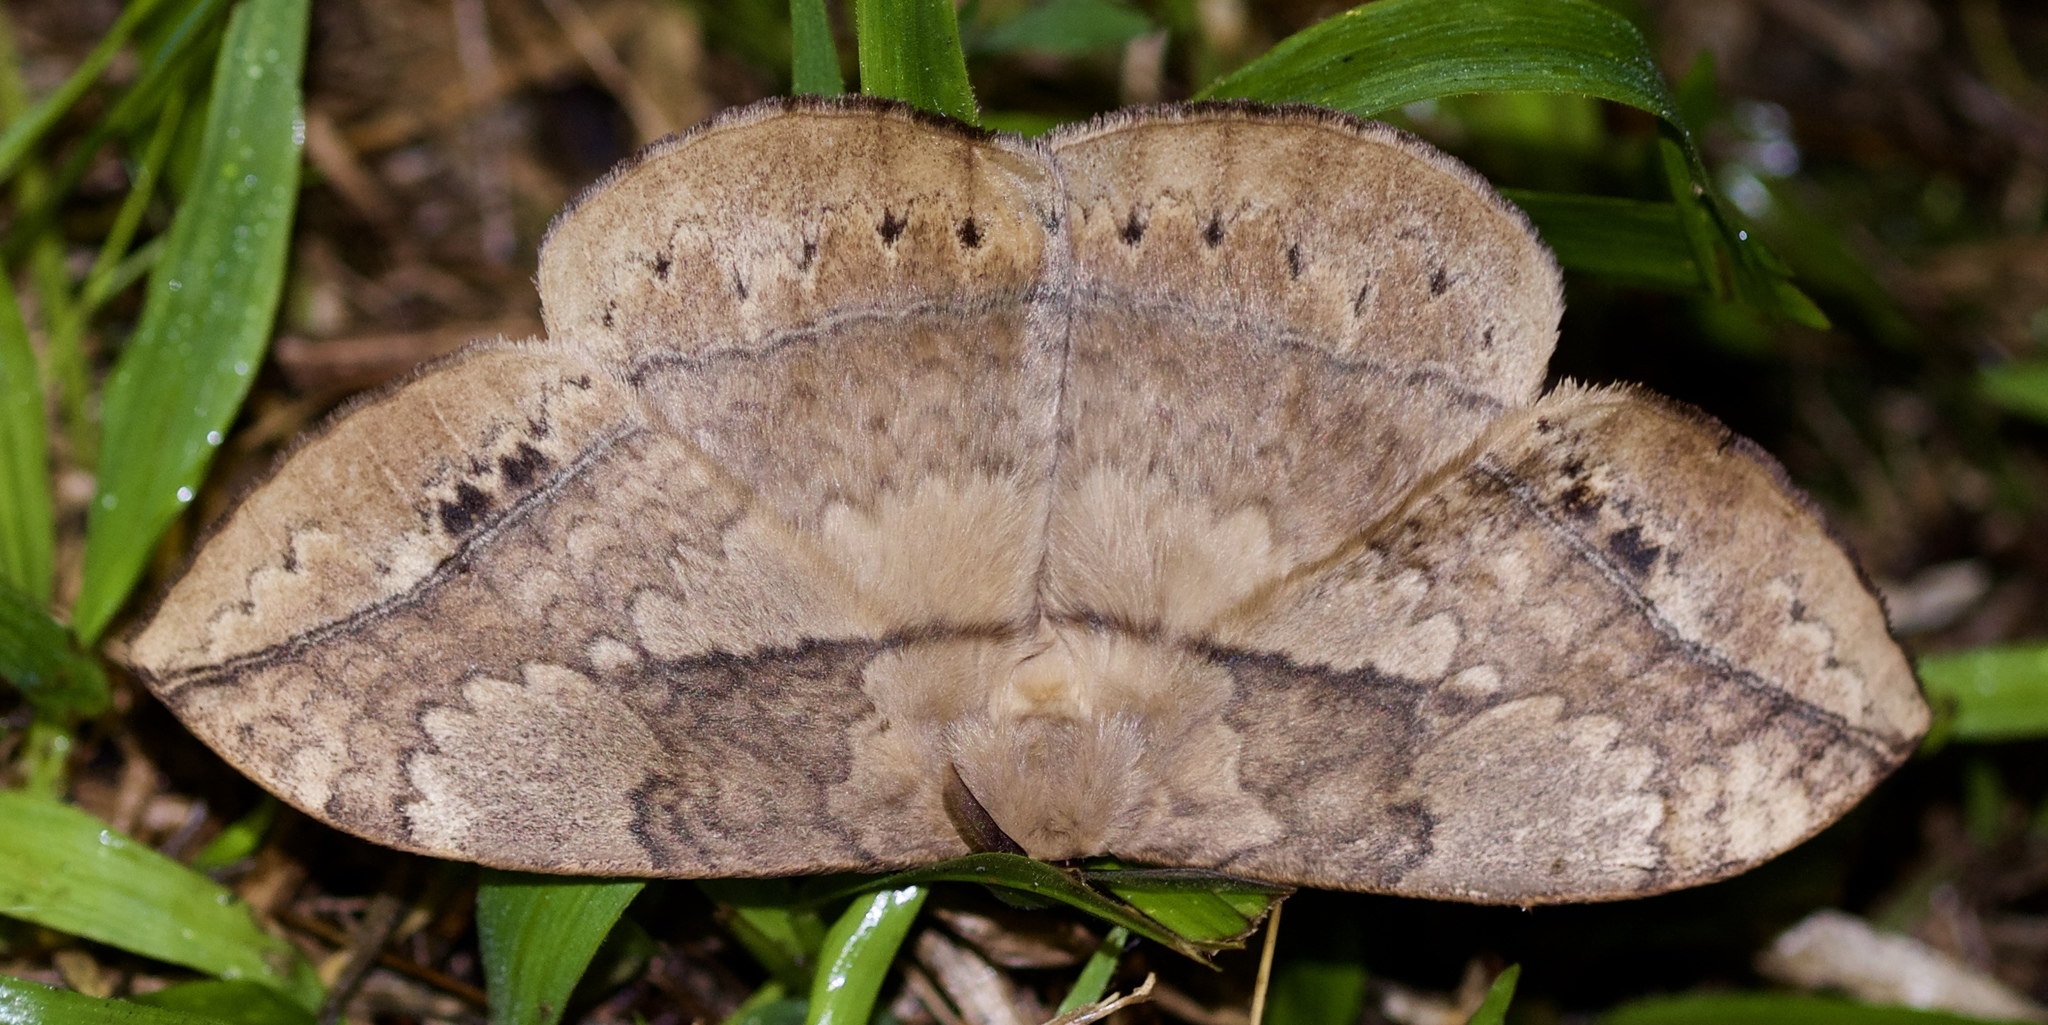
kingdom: Animalia
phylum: Arthropoda
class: Insecta
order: Lepidoptera
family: Eupterotidae
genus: Sphingognatha
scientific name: Sphingognatha asclepiades
